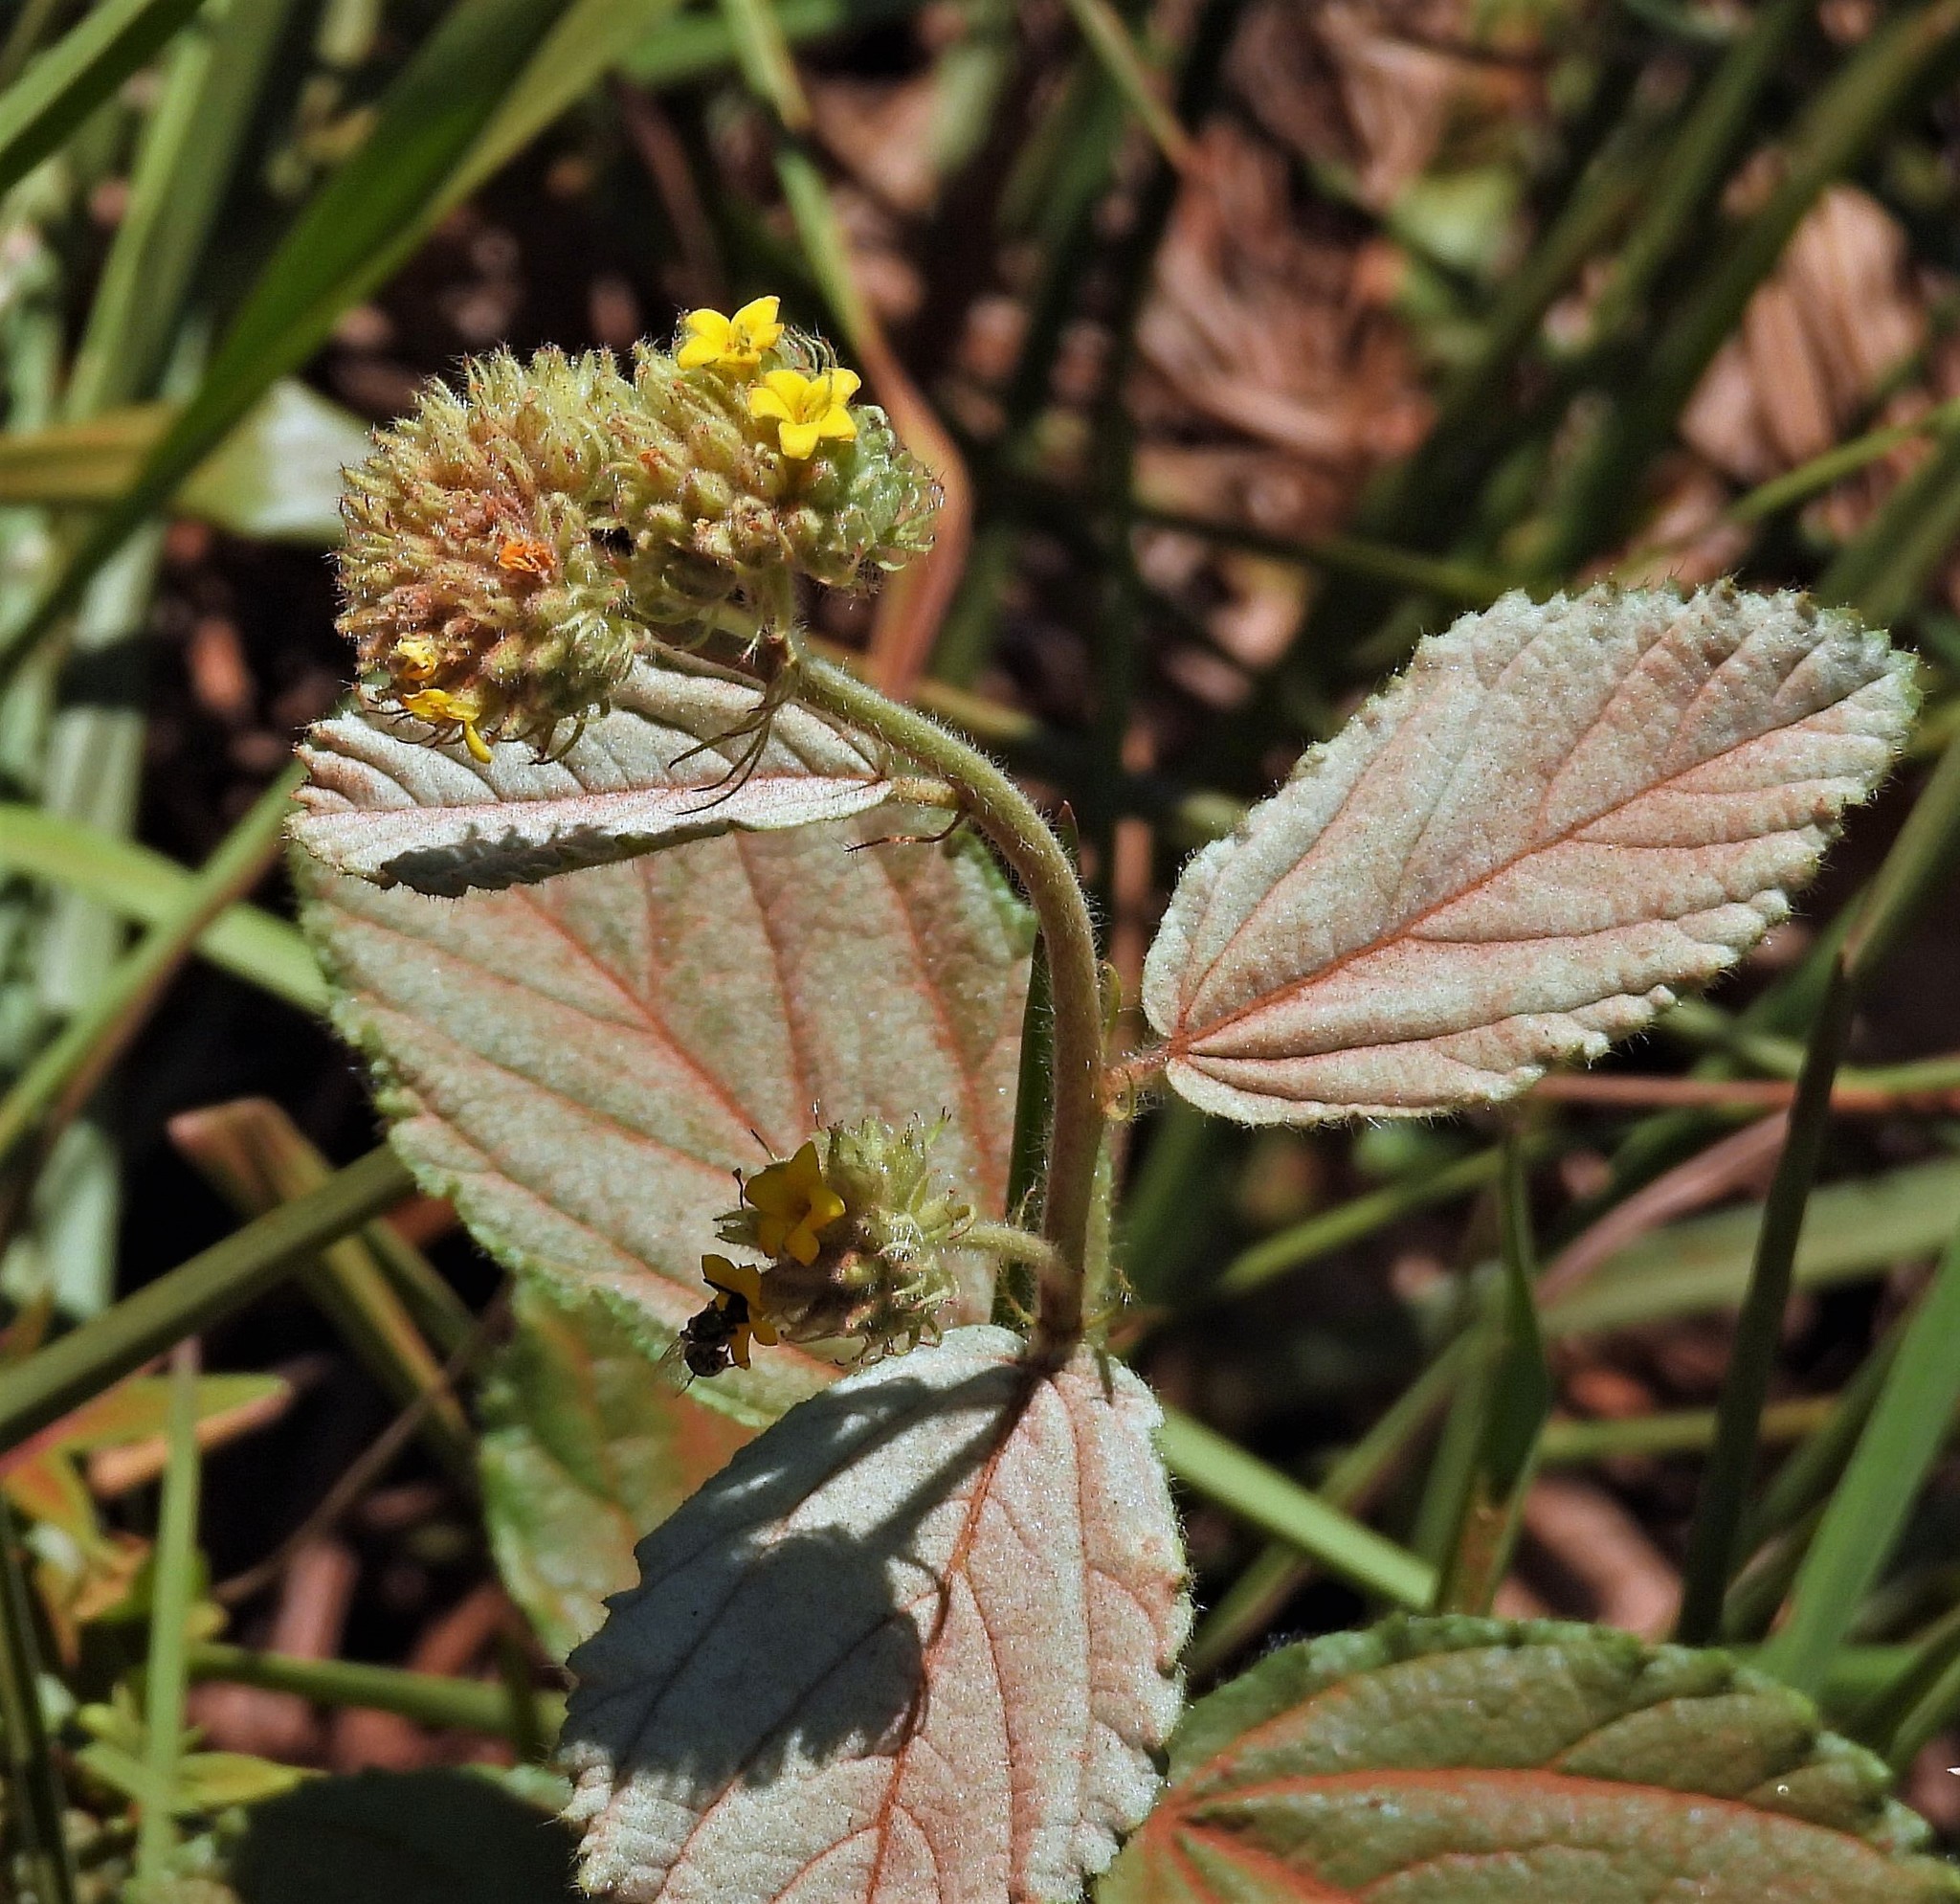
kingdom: Plantae
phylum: Tracheophyta
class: Magnoliopsida
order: Malvales
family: Malvaceae
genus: Waltheria
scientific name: Waltheria communis
